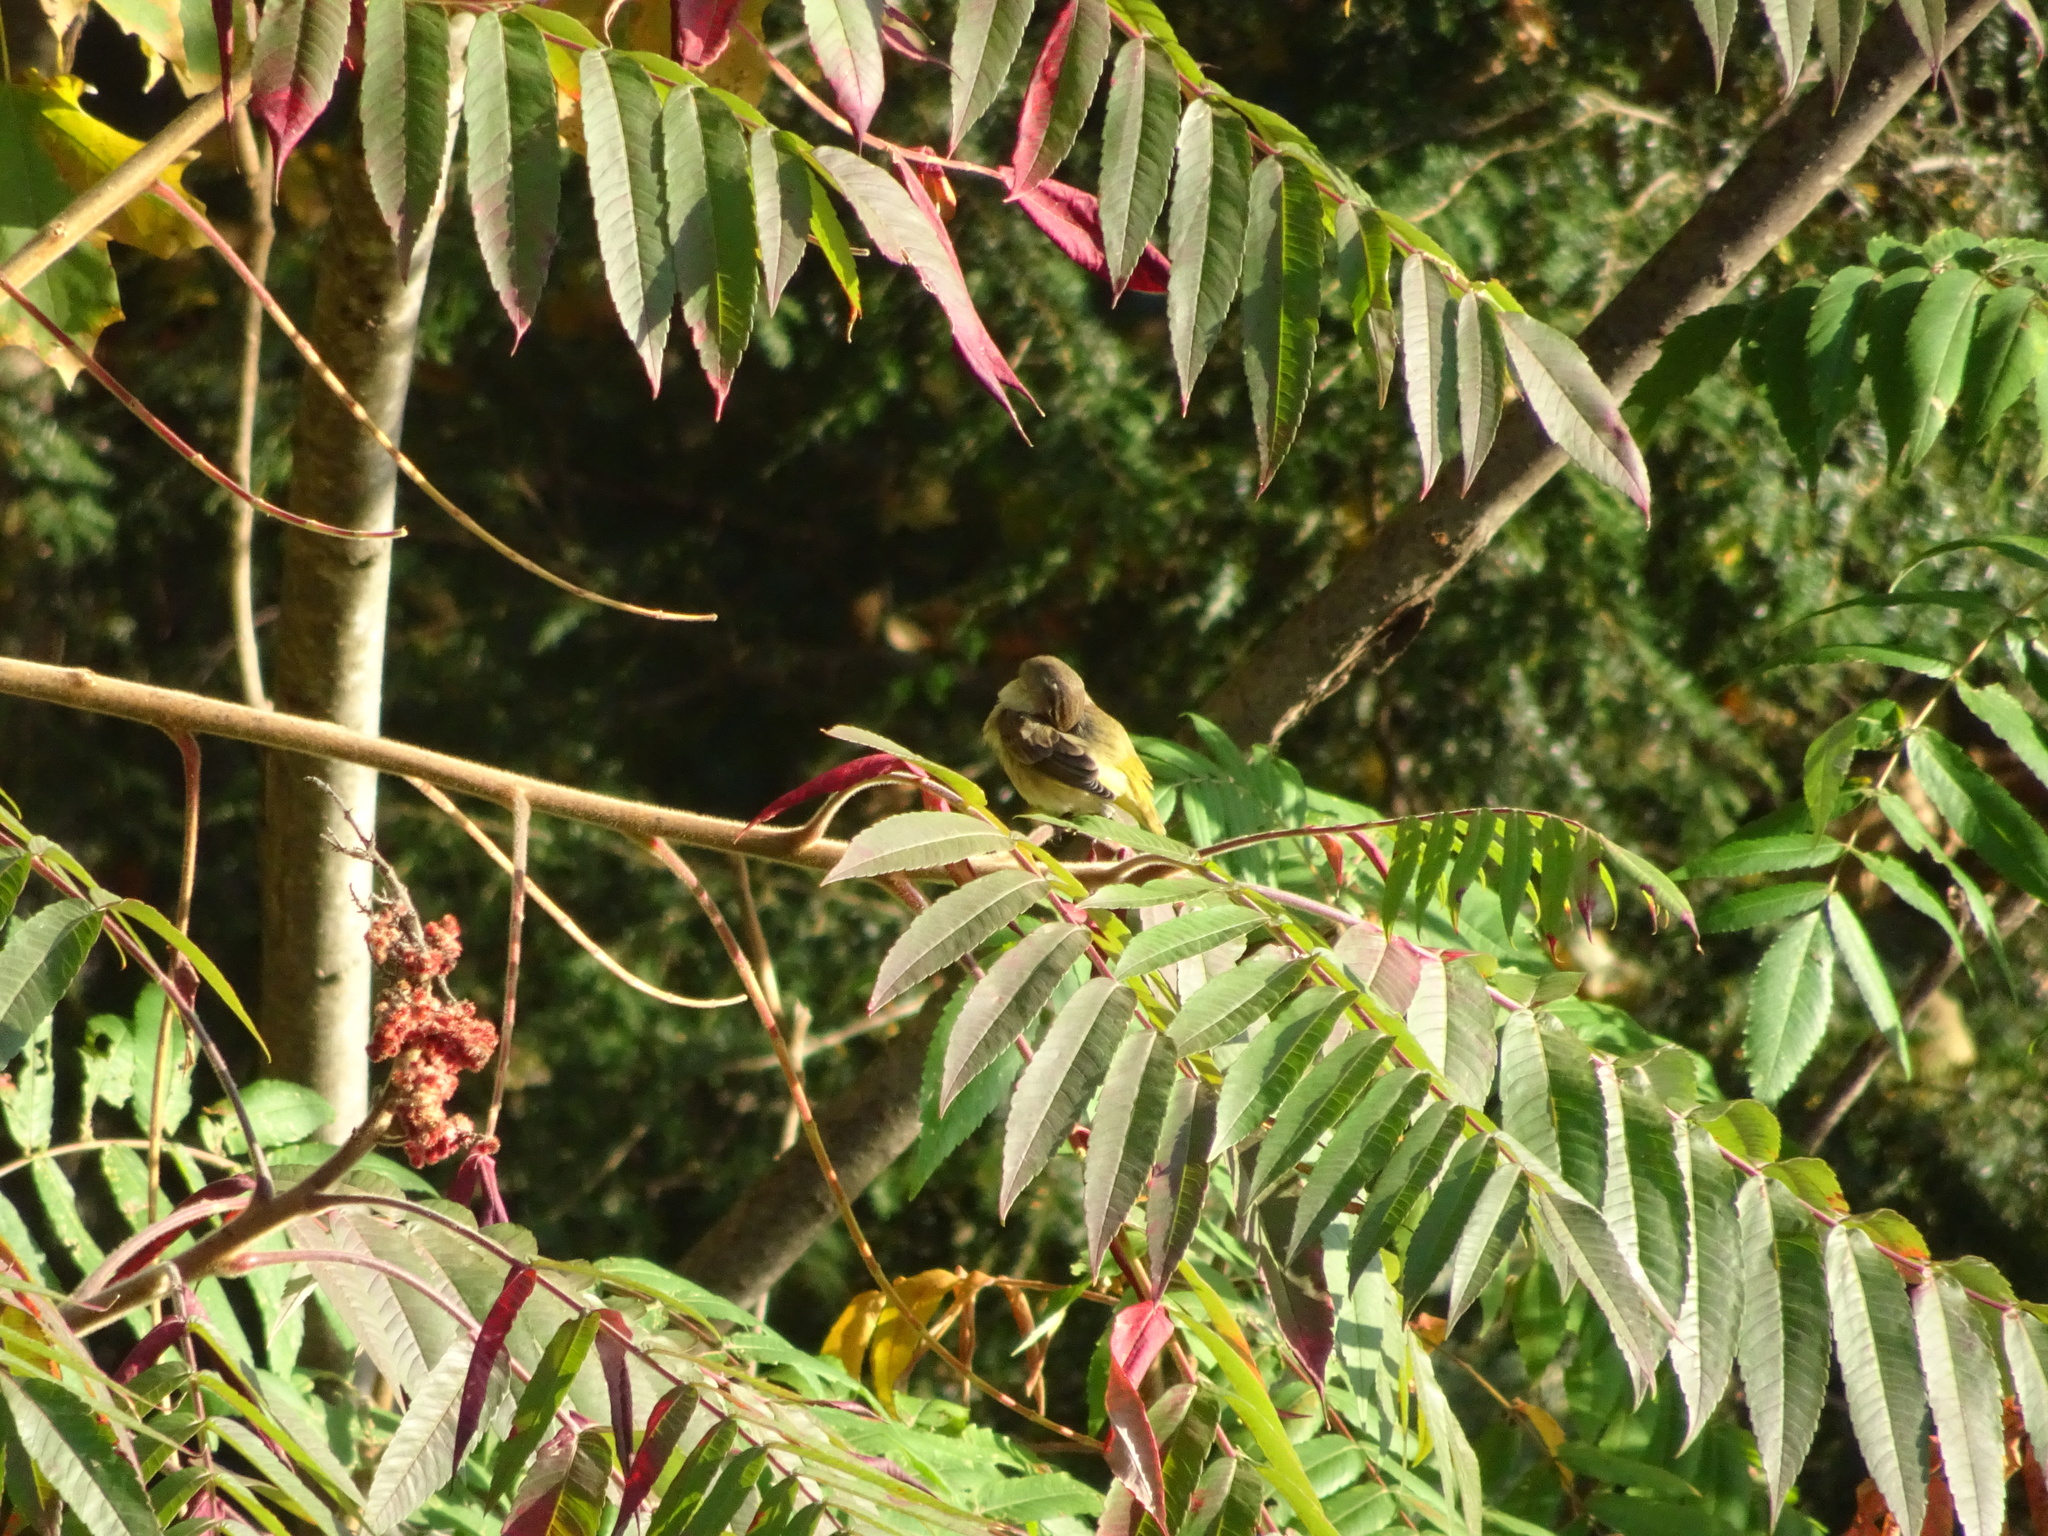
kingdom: Animalia
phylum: Chordata
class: Aves
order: Passeriformes
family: Parulidae
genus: Setophaga
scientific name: Setophaga palmarum
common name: Palm warbler
